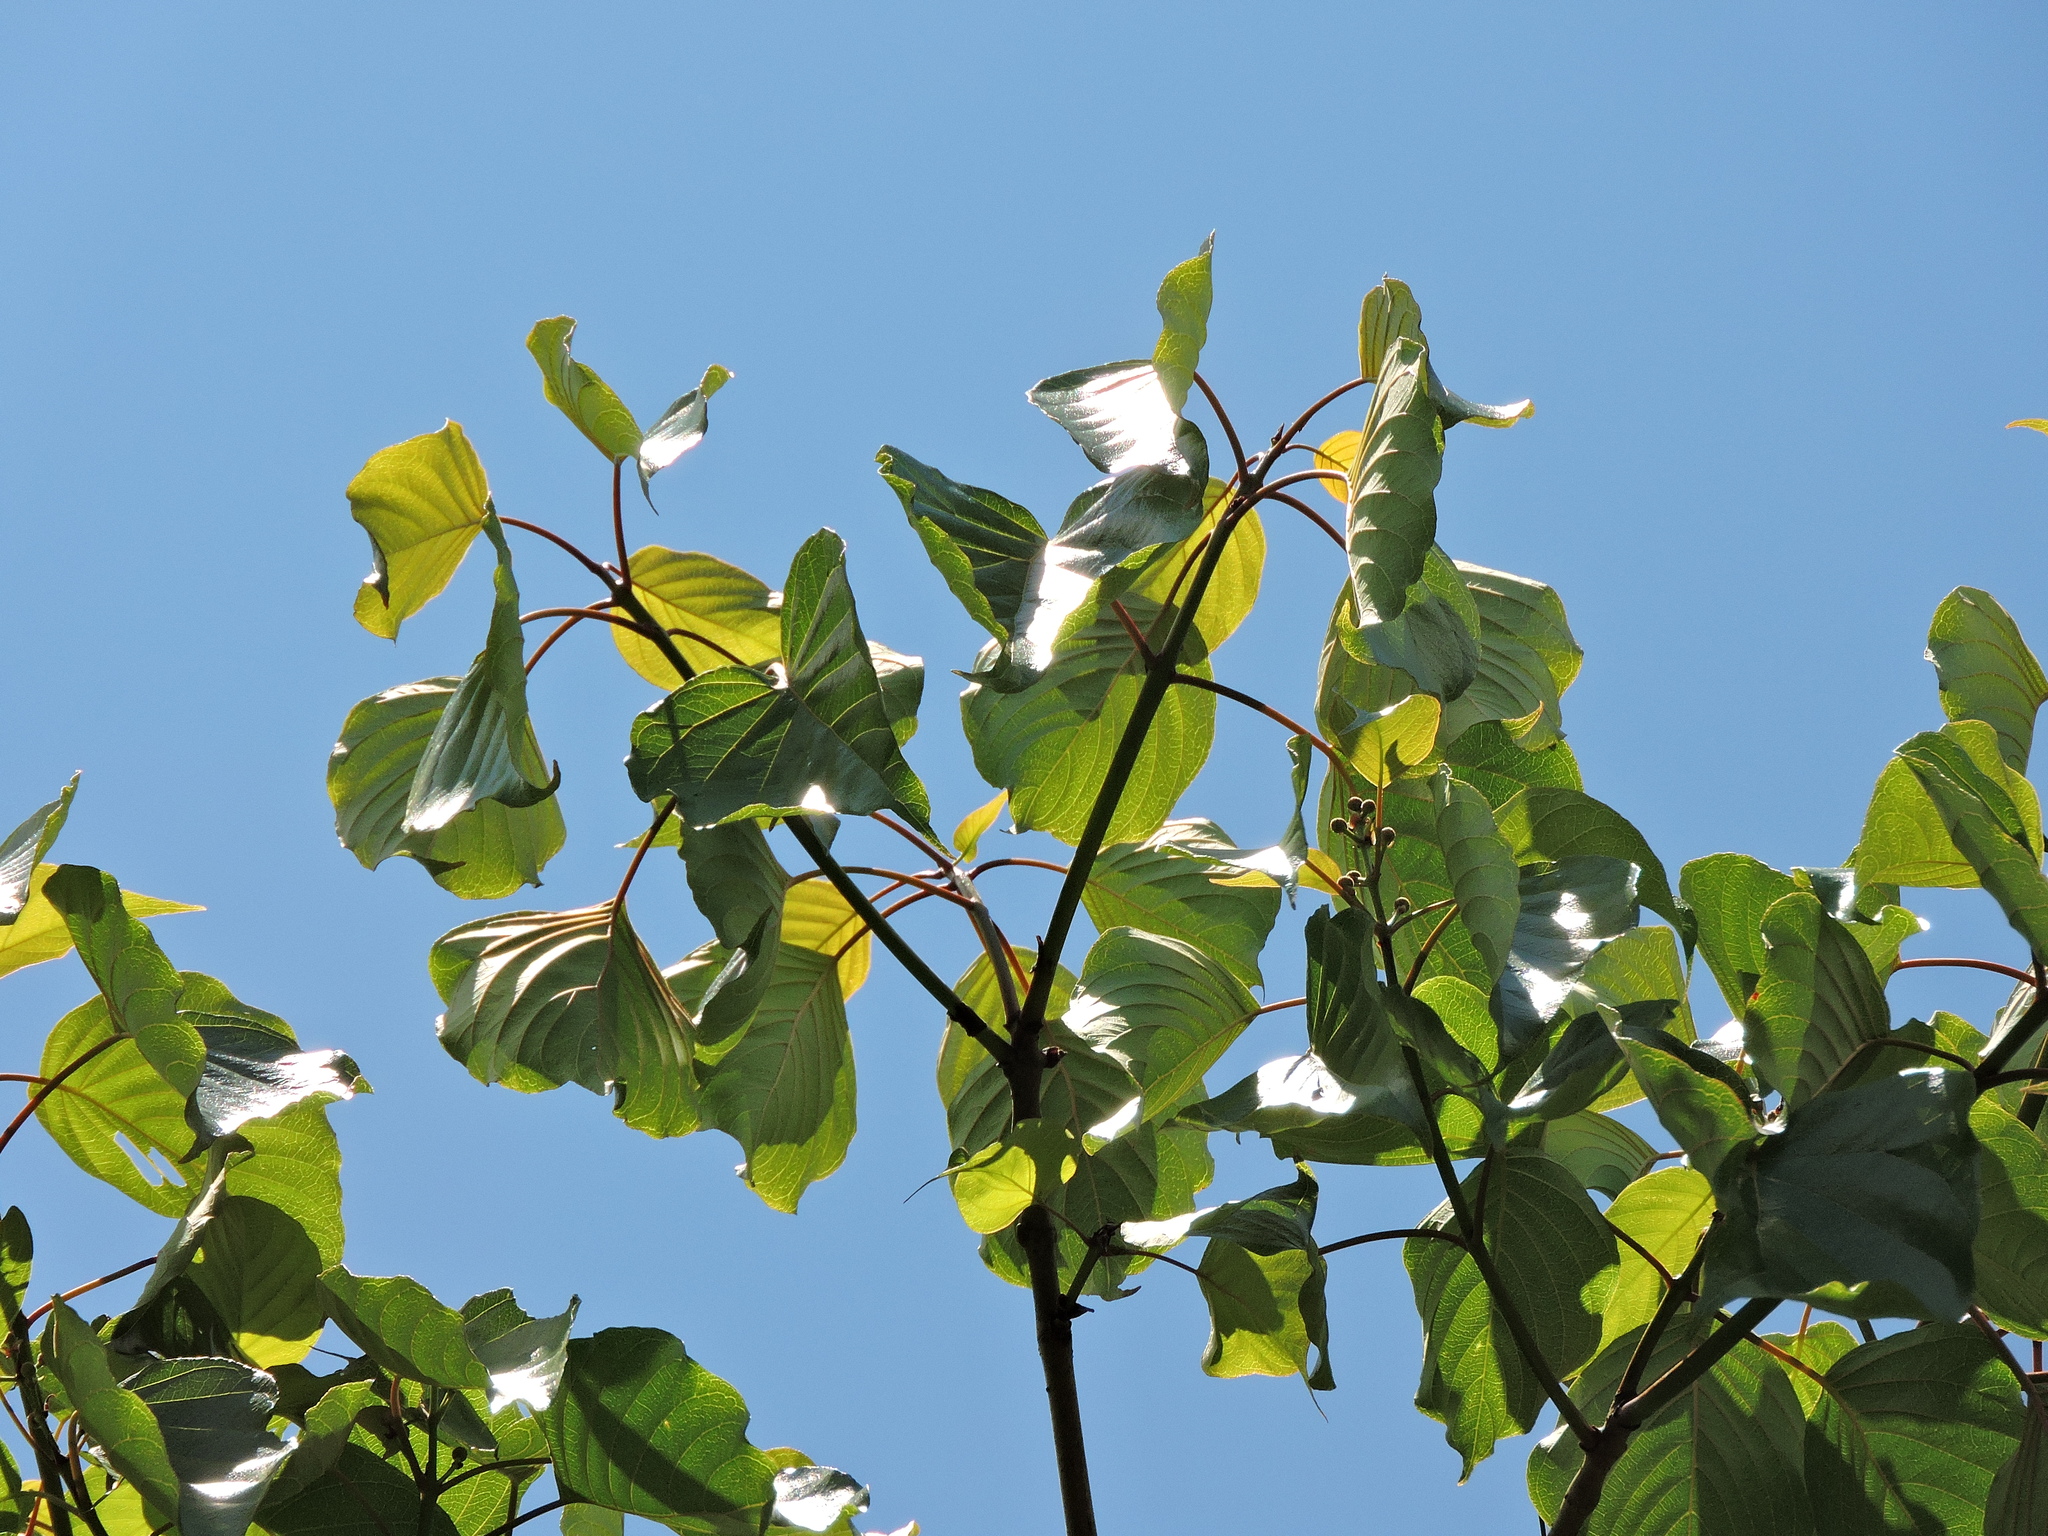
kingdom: Plantae
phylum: Tracheophyta
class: Magnoliopsida
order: Gentianales
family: Rubiaceae
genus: Adina
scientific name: Adina racemosa
